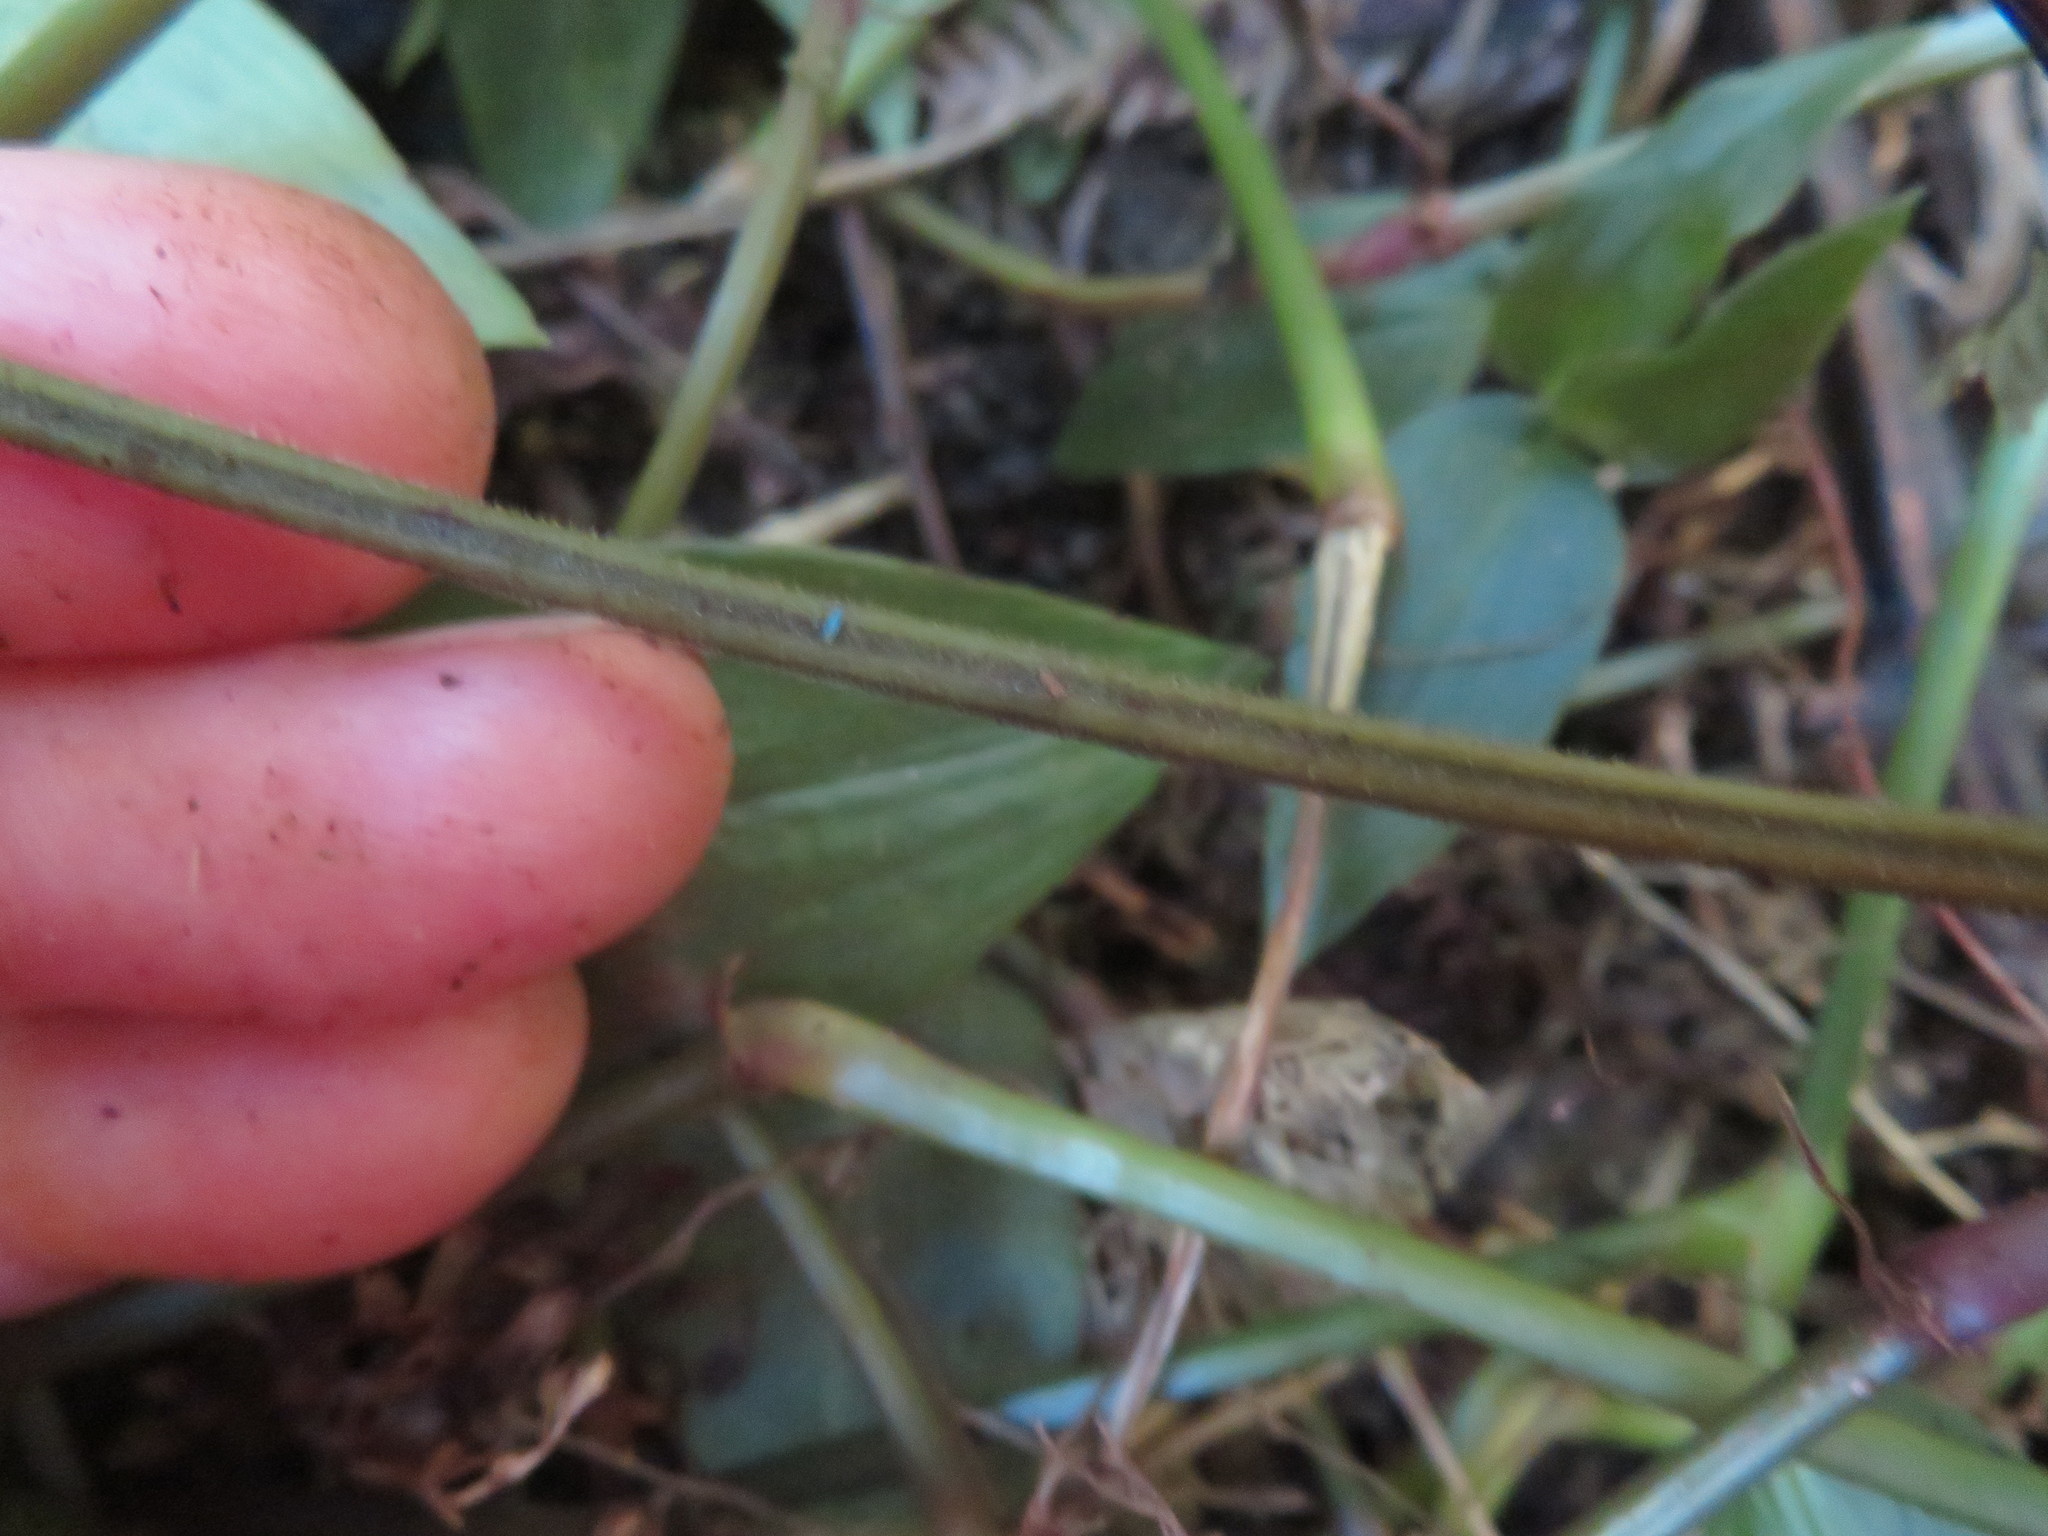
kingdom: Plantae
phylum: Tracheophyta
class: Polypodiopsida
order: Polypodiales
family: Dryopteridaceae
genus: Parapolystichum
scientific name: Parapolystichum microsorum
